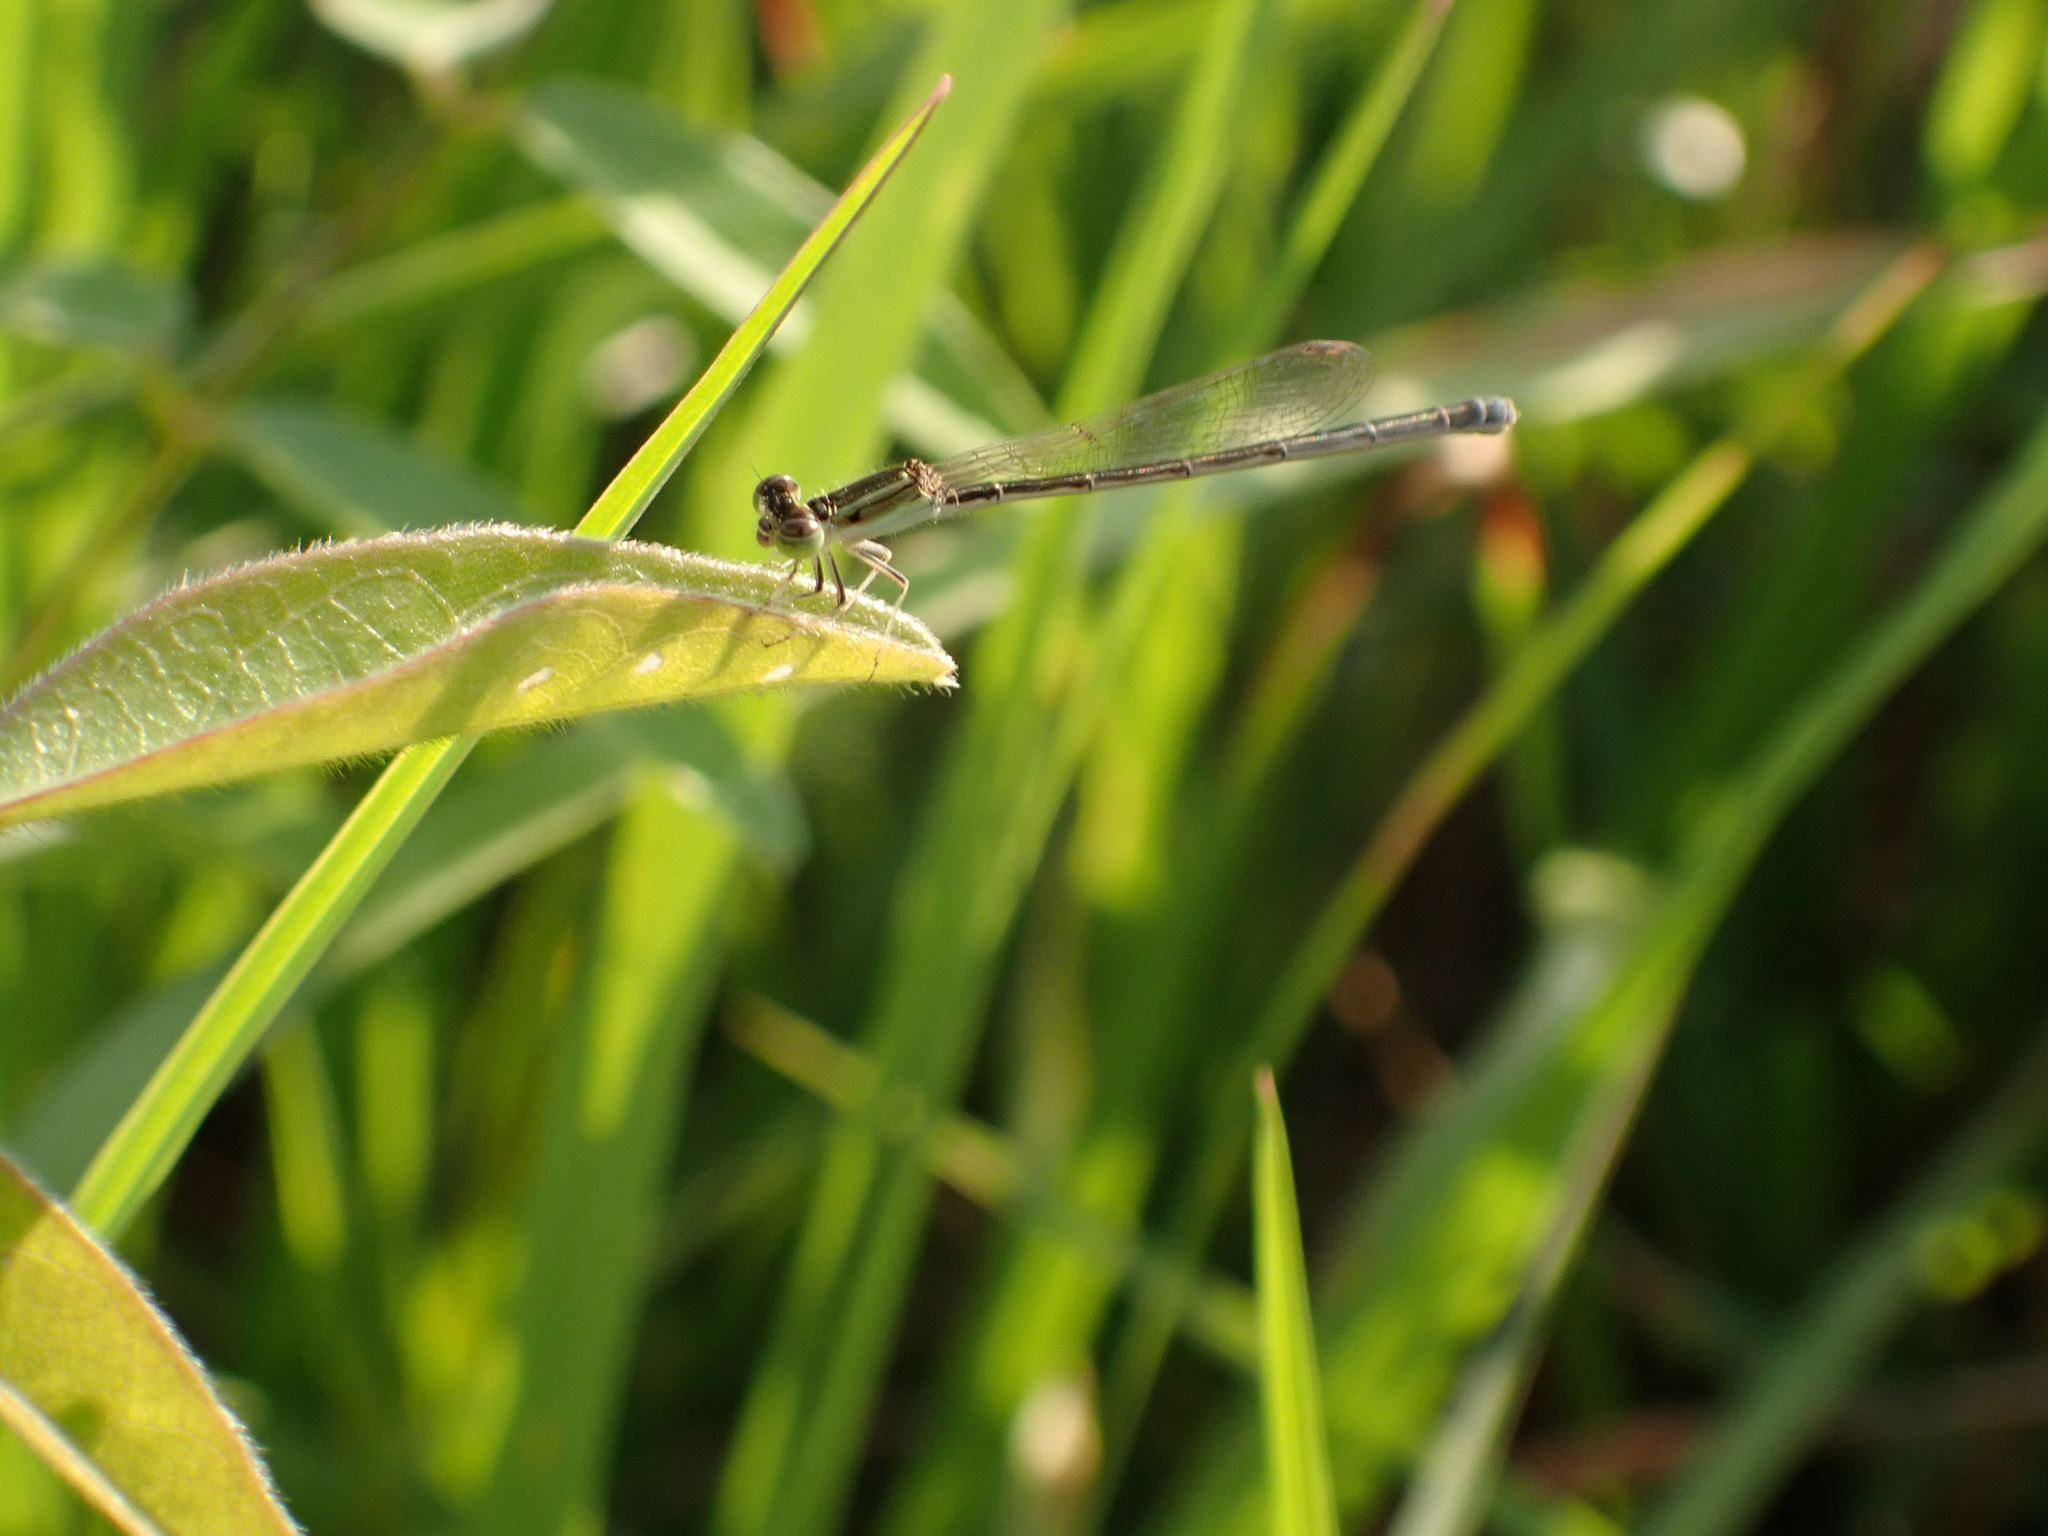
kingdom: Animalia
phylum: Arthropoda
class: Insecta
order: Odonata
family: Coenagrionidae
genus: Ischnura
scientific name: Ischnura hastata
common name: Citrine forktail
